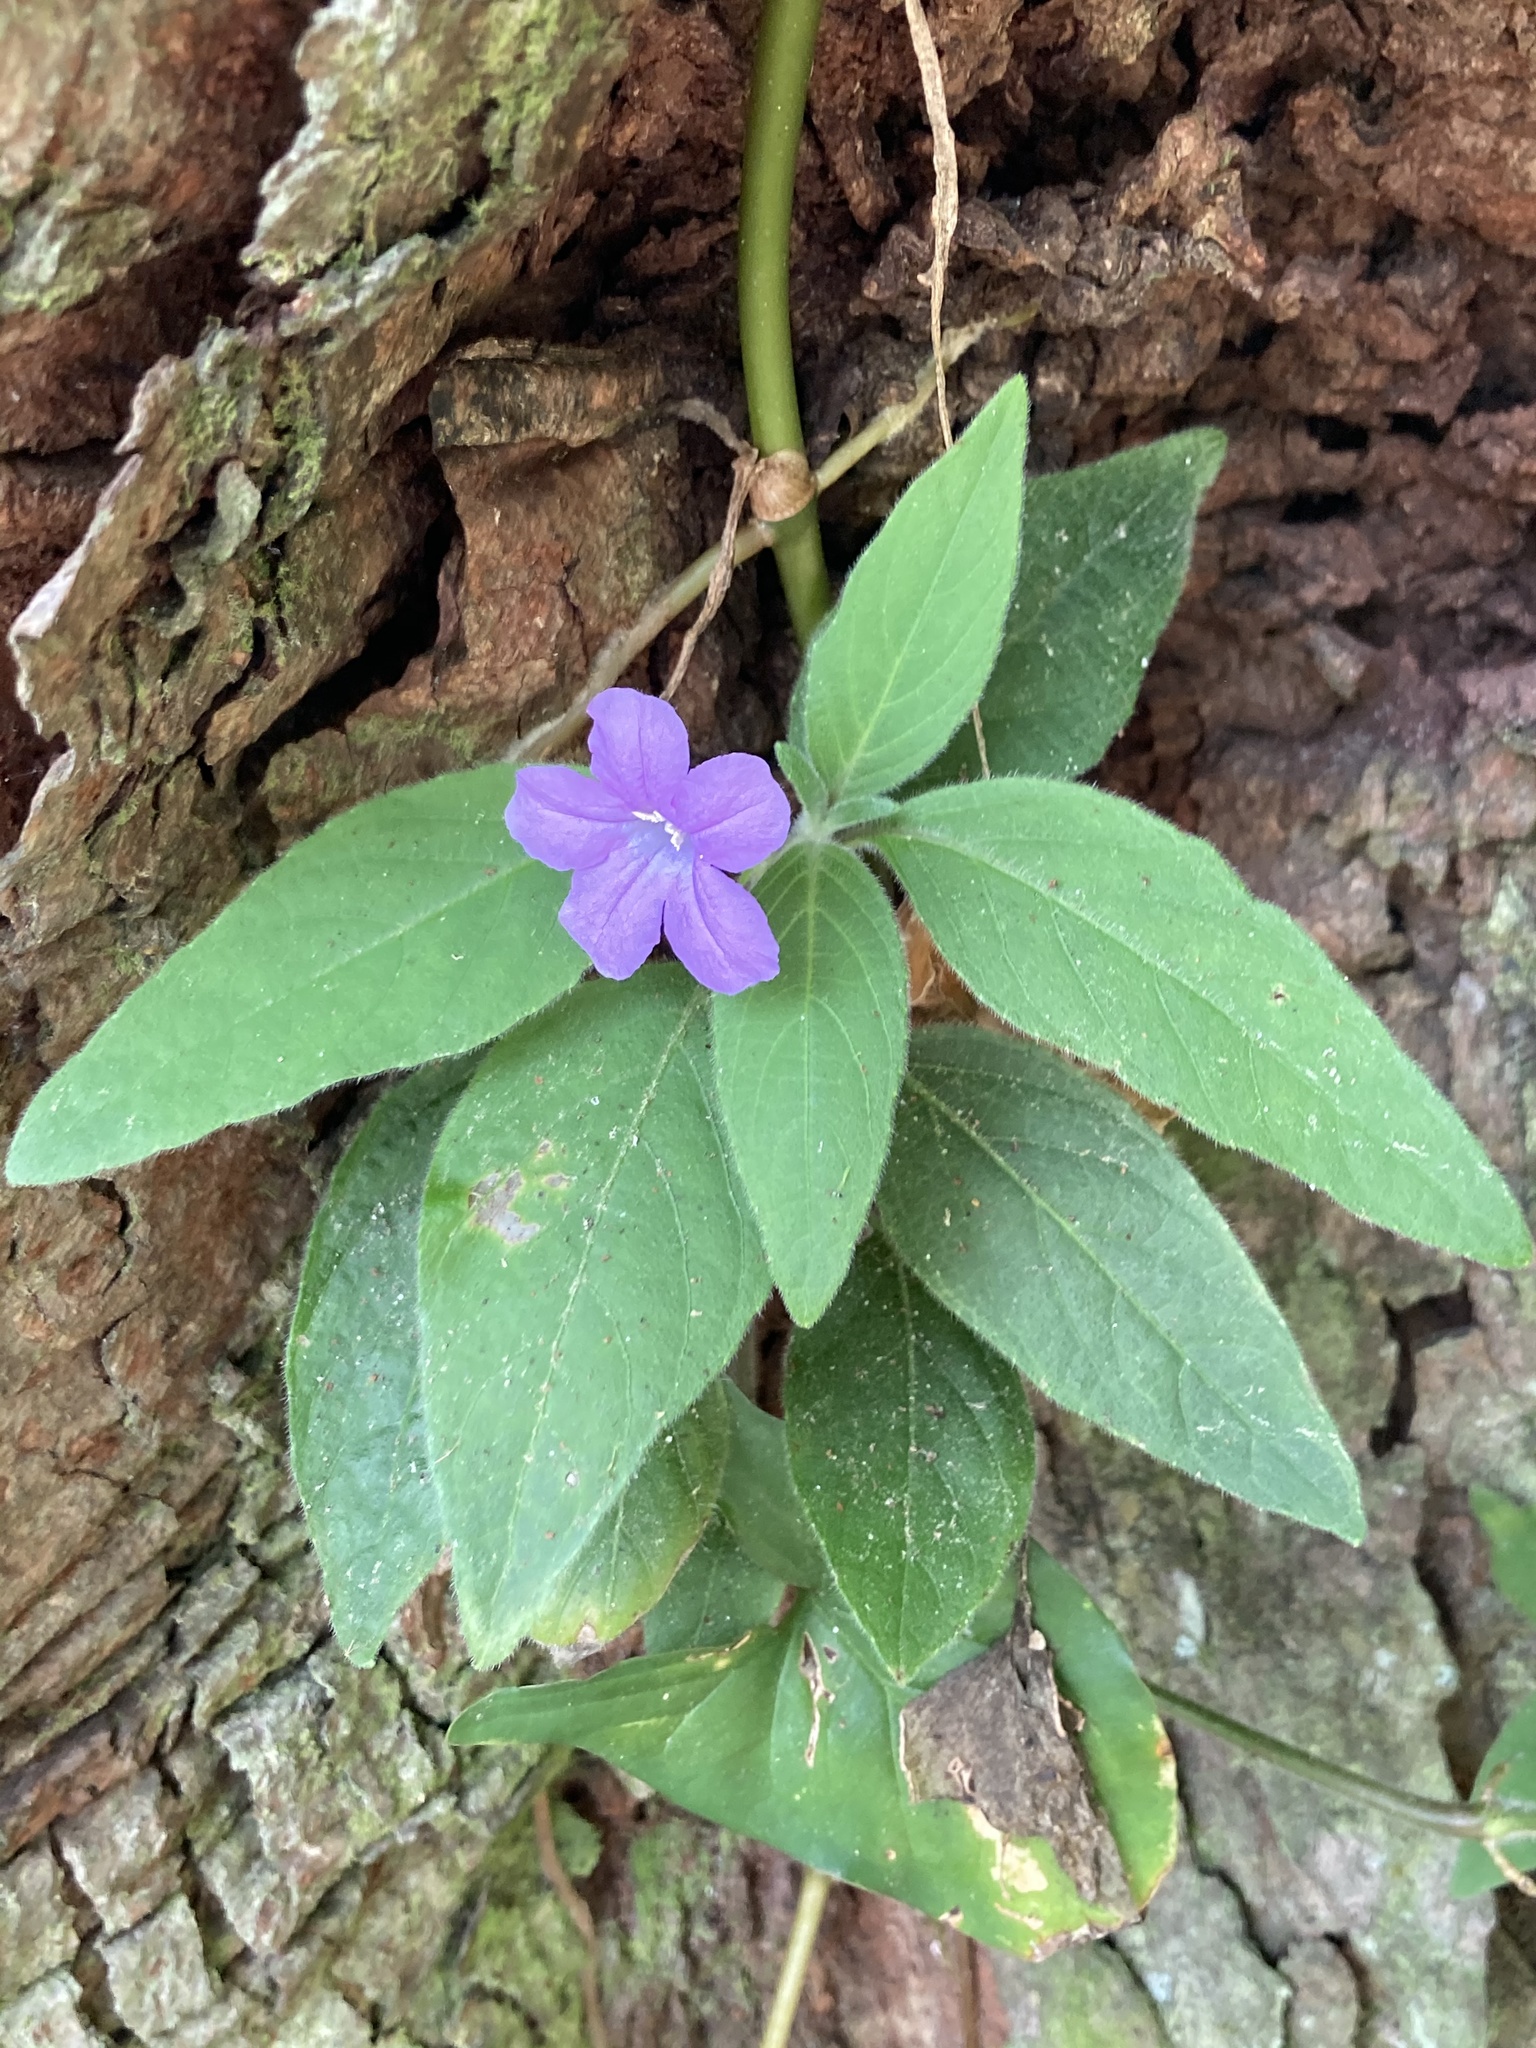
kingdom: Plantae
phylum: Tracheophyta
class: Magnoliopsida
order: Lamiales
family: Acanthaceae
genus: Ruellia
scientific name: Ruellia caroliniensis
